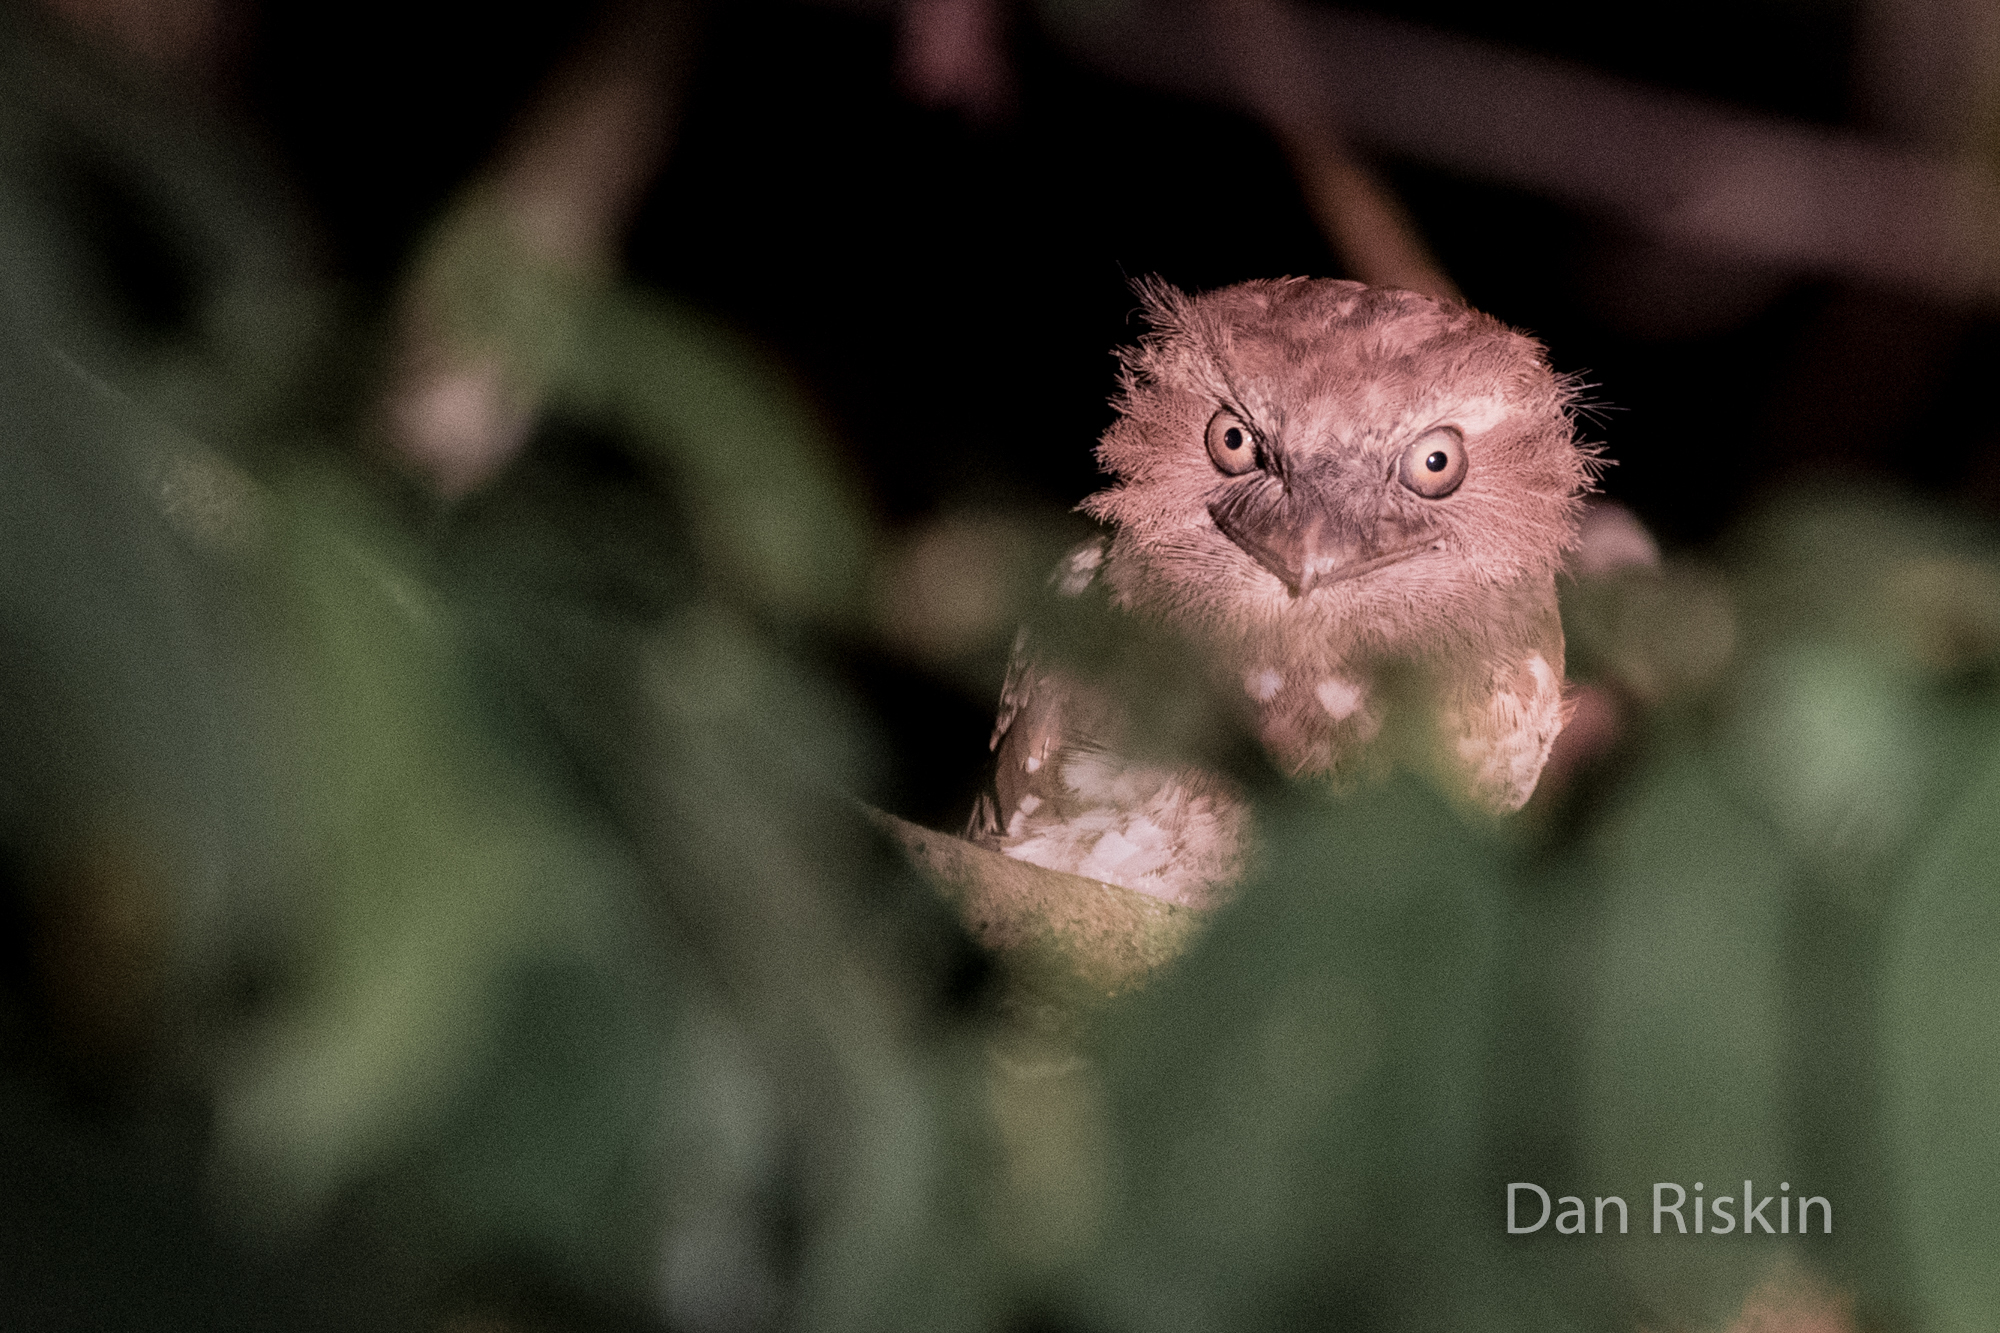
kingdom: Animalia
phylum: Chordata
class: Aves
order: Caprimulgiformes
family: Podargidae
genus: Batrachostomus
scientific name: Batrachostomus cornutus
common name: Sunda frogmouth
